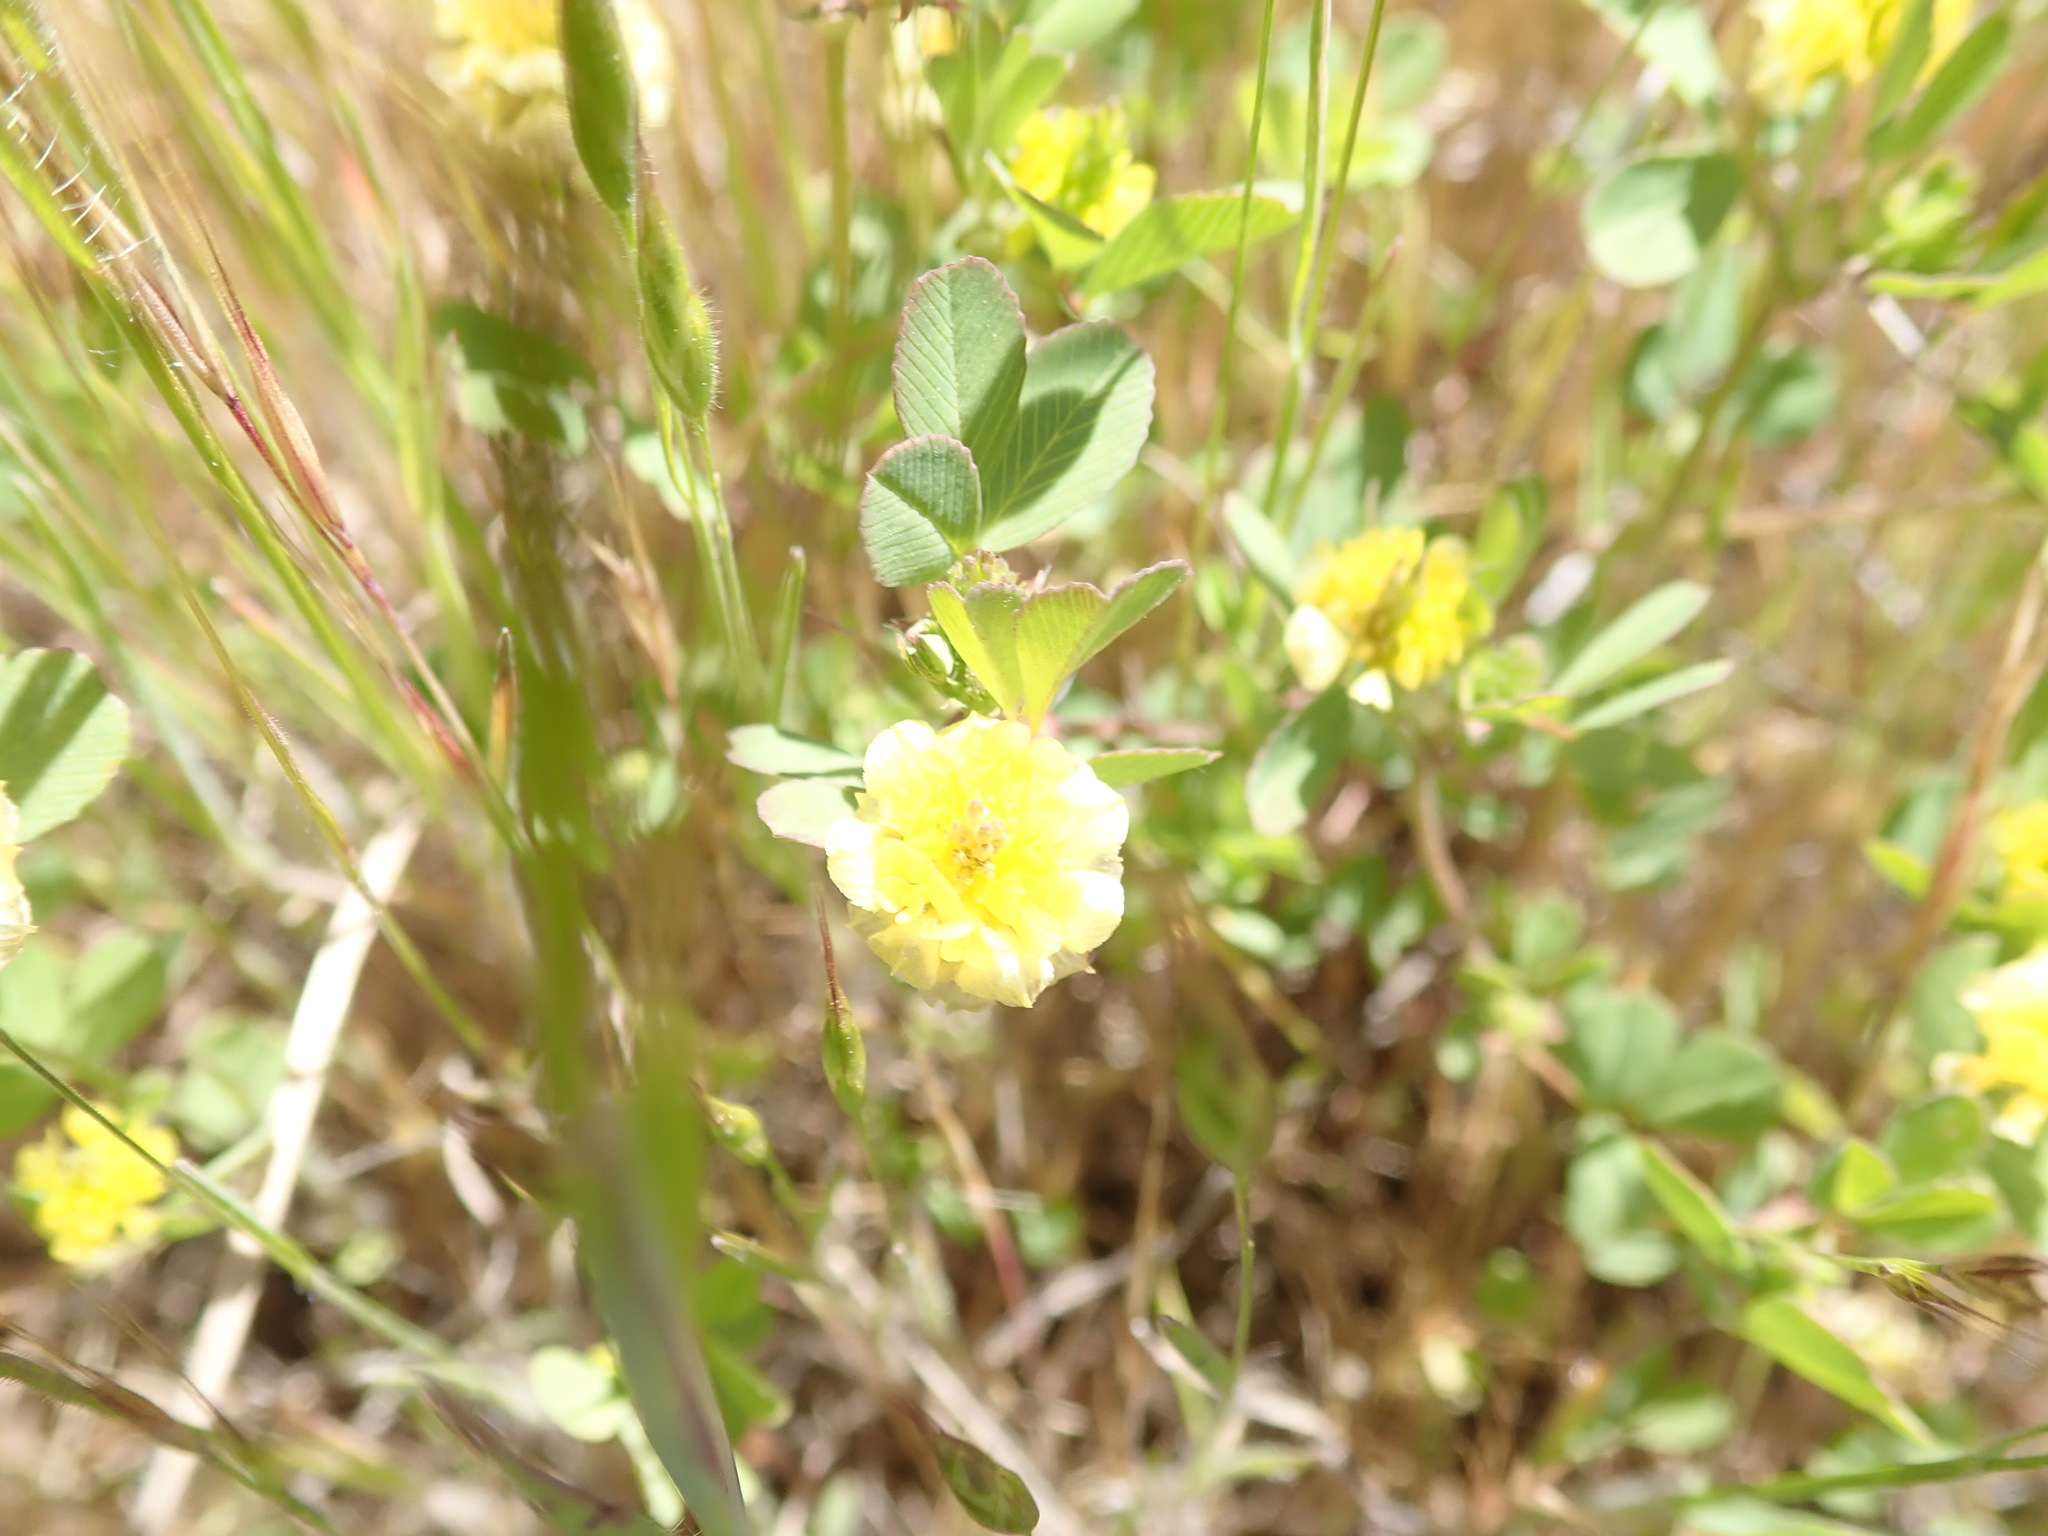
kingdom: Plantae
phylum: Tracheophyta
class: Magnoliopsida
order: Fabales
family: Fabaceae
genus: Trifolium
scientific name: Trifolium campestre
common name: Field clover
